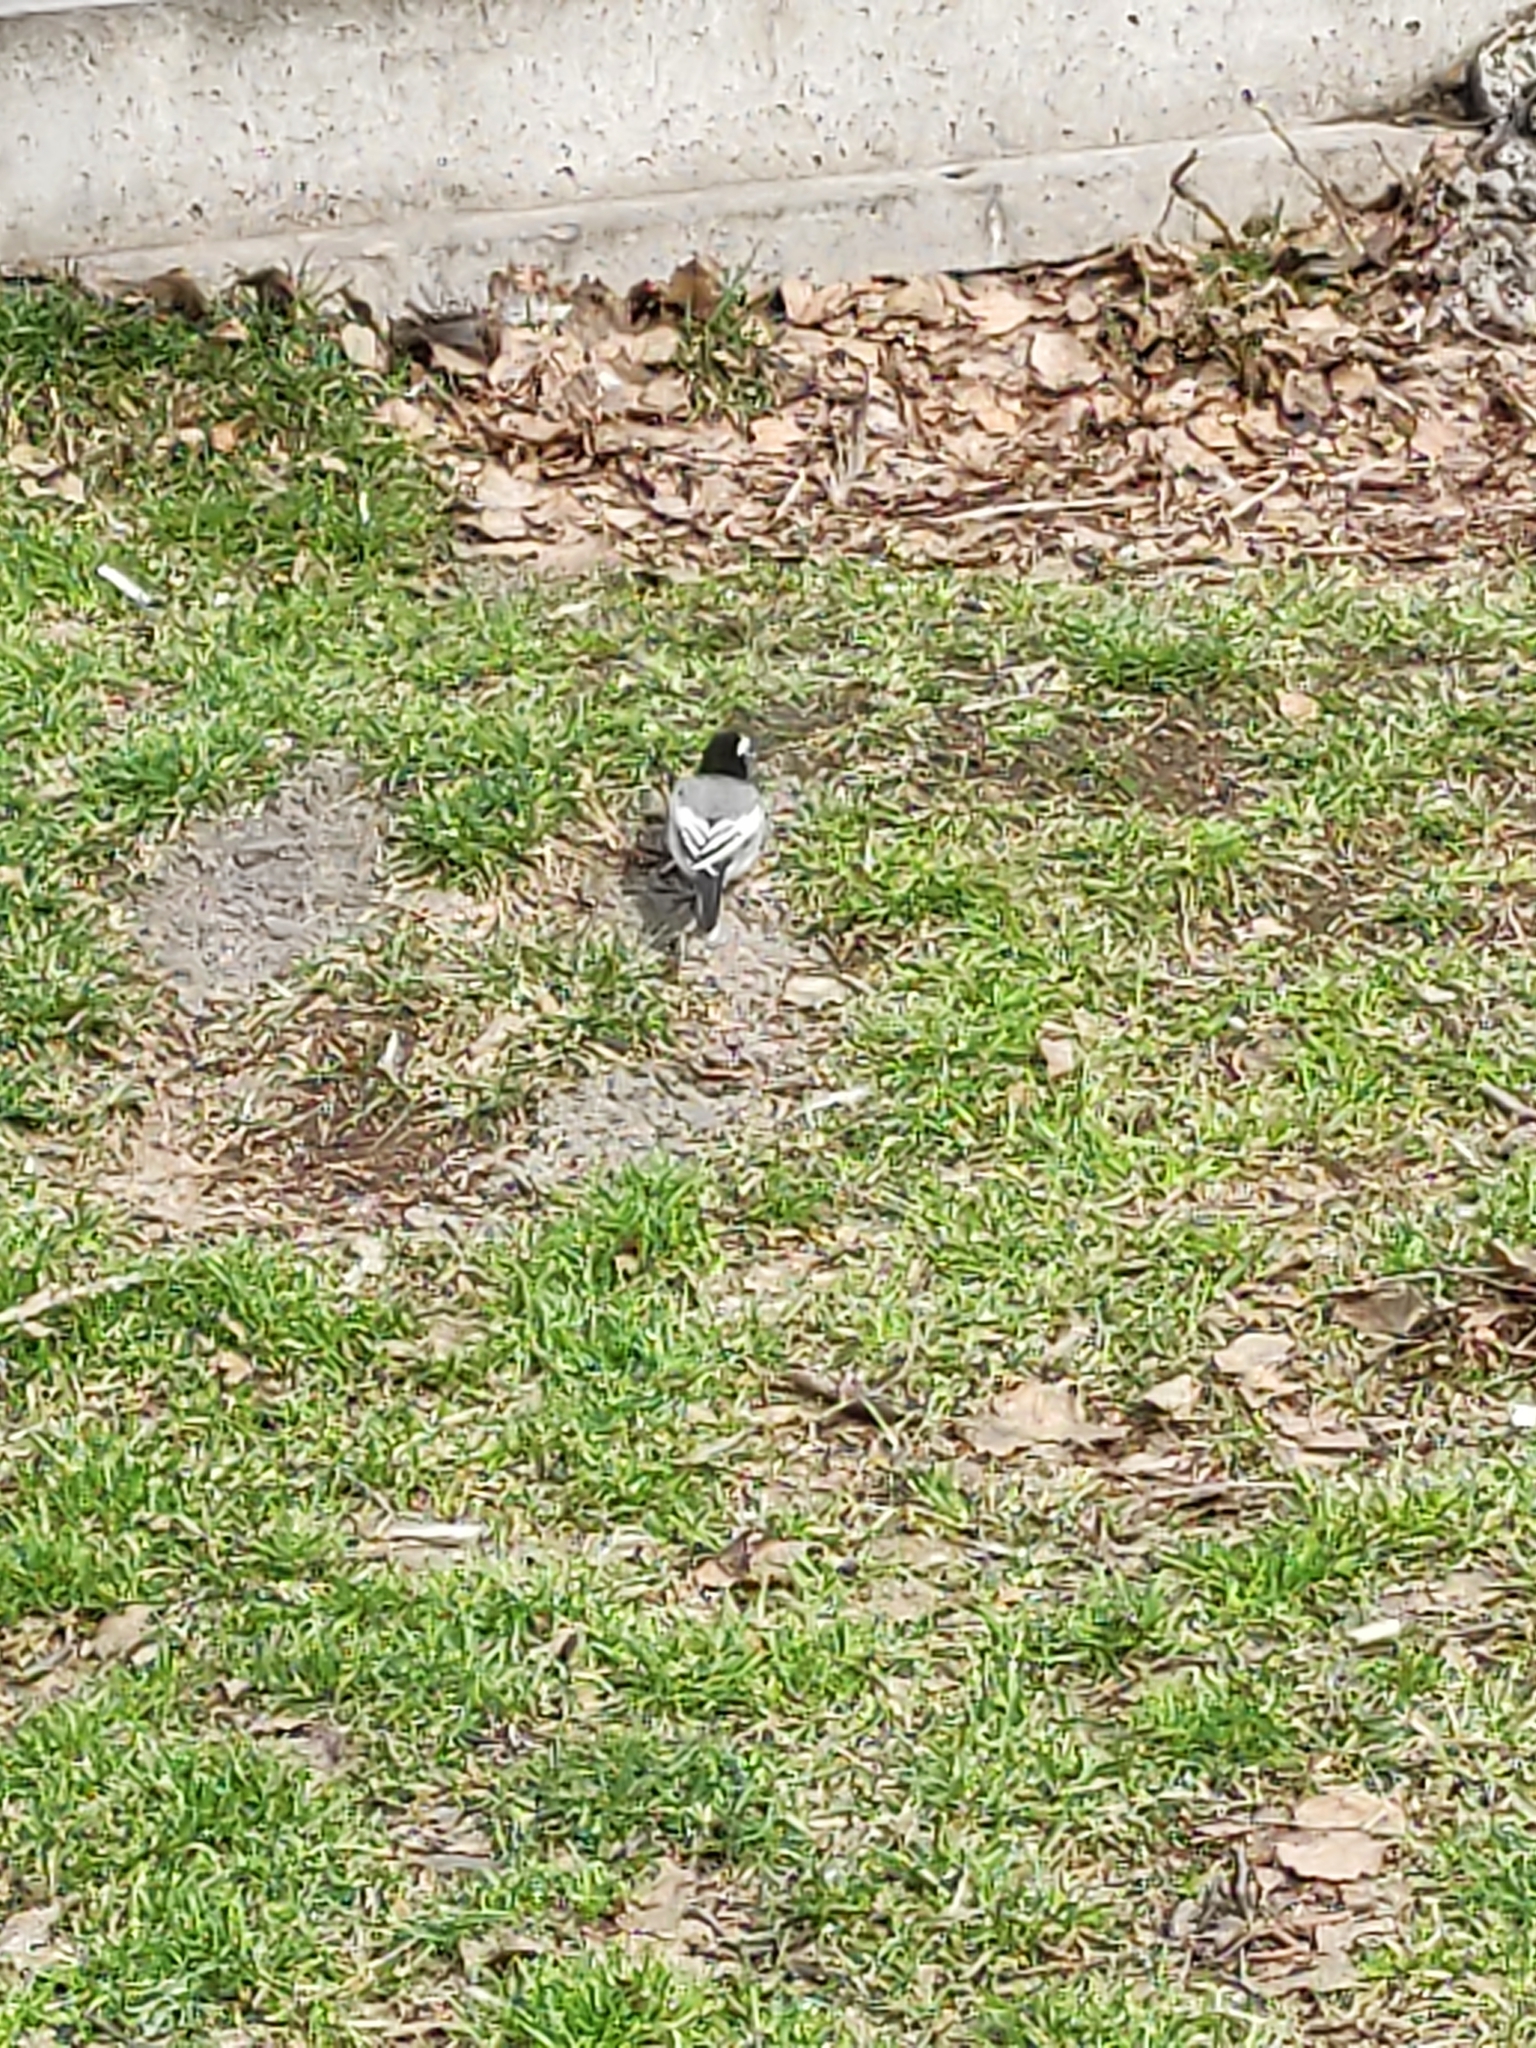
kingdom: Animalia
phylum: Chordata
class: Aves
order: Passeriformes
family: Motacillidae
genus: Motacilla
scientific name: Motacilla alba
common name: White wagtail
